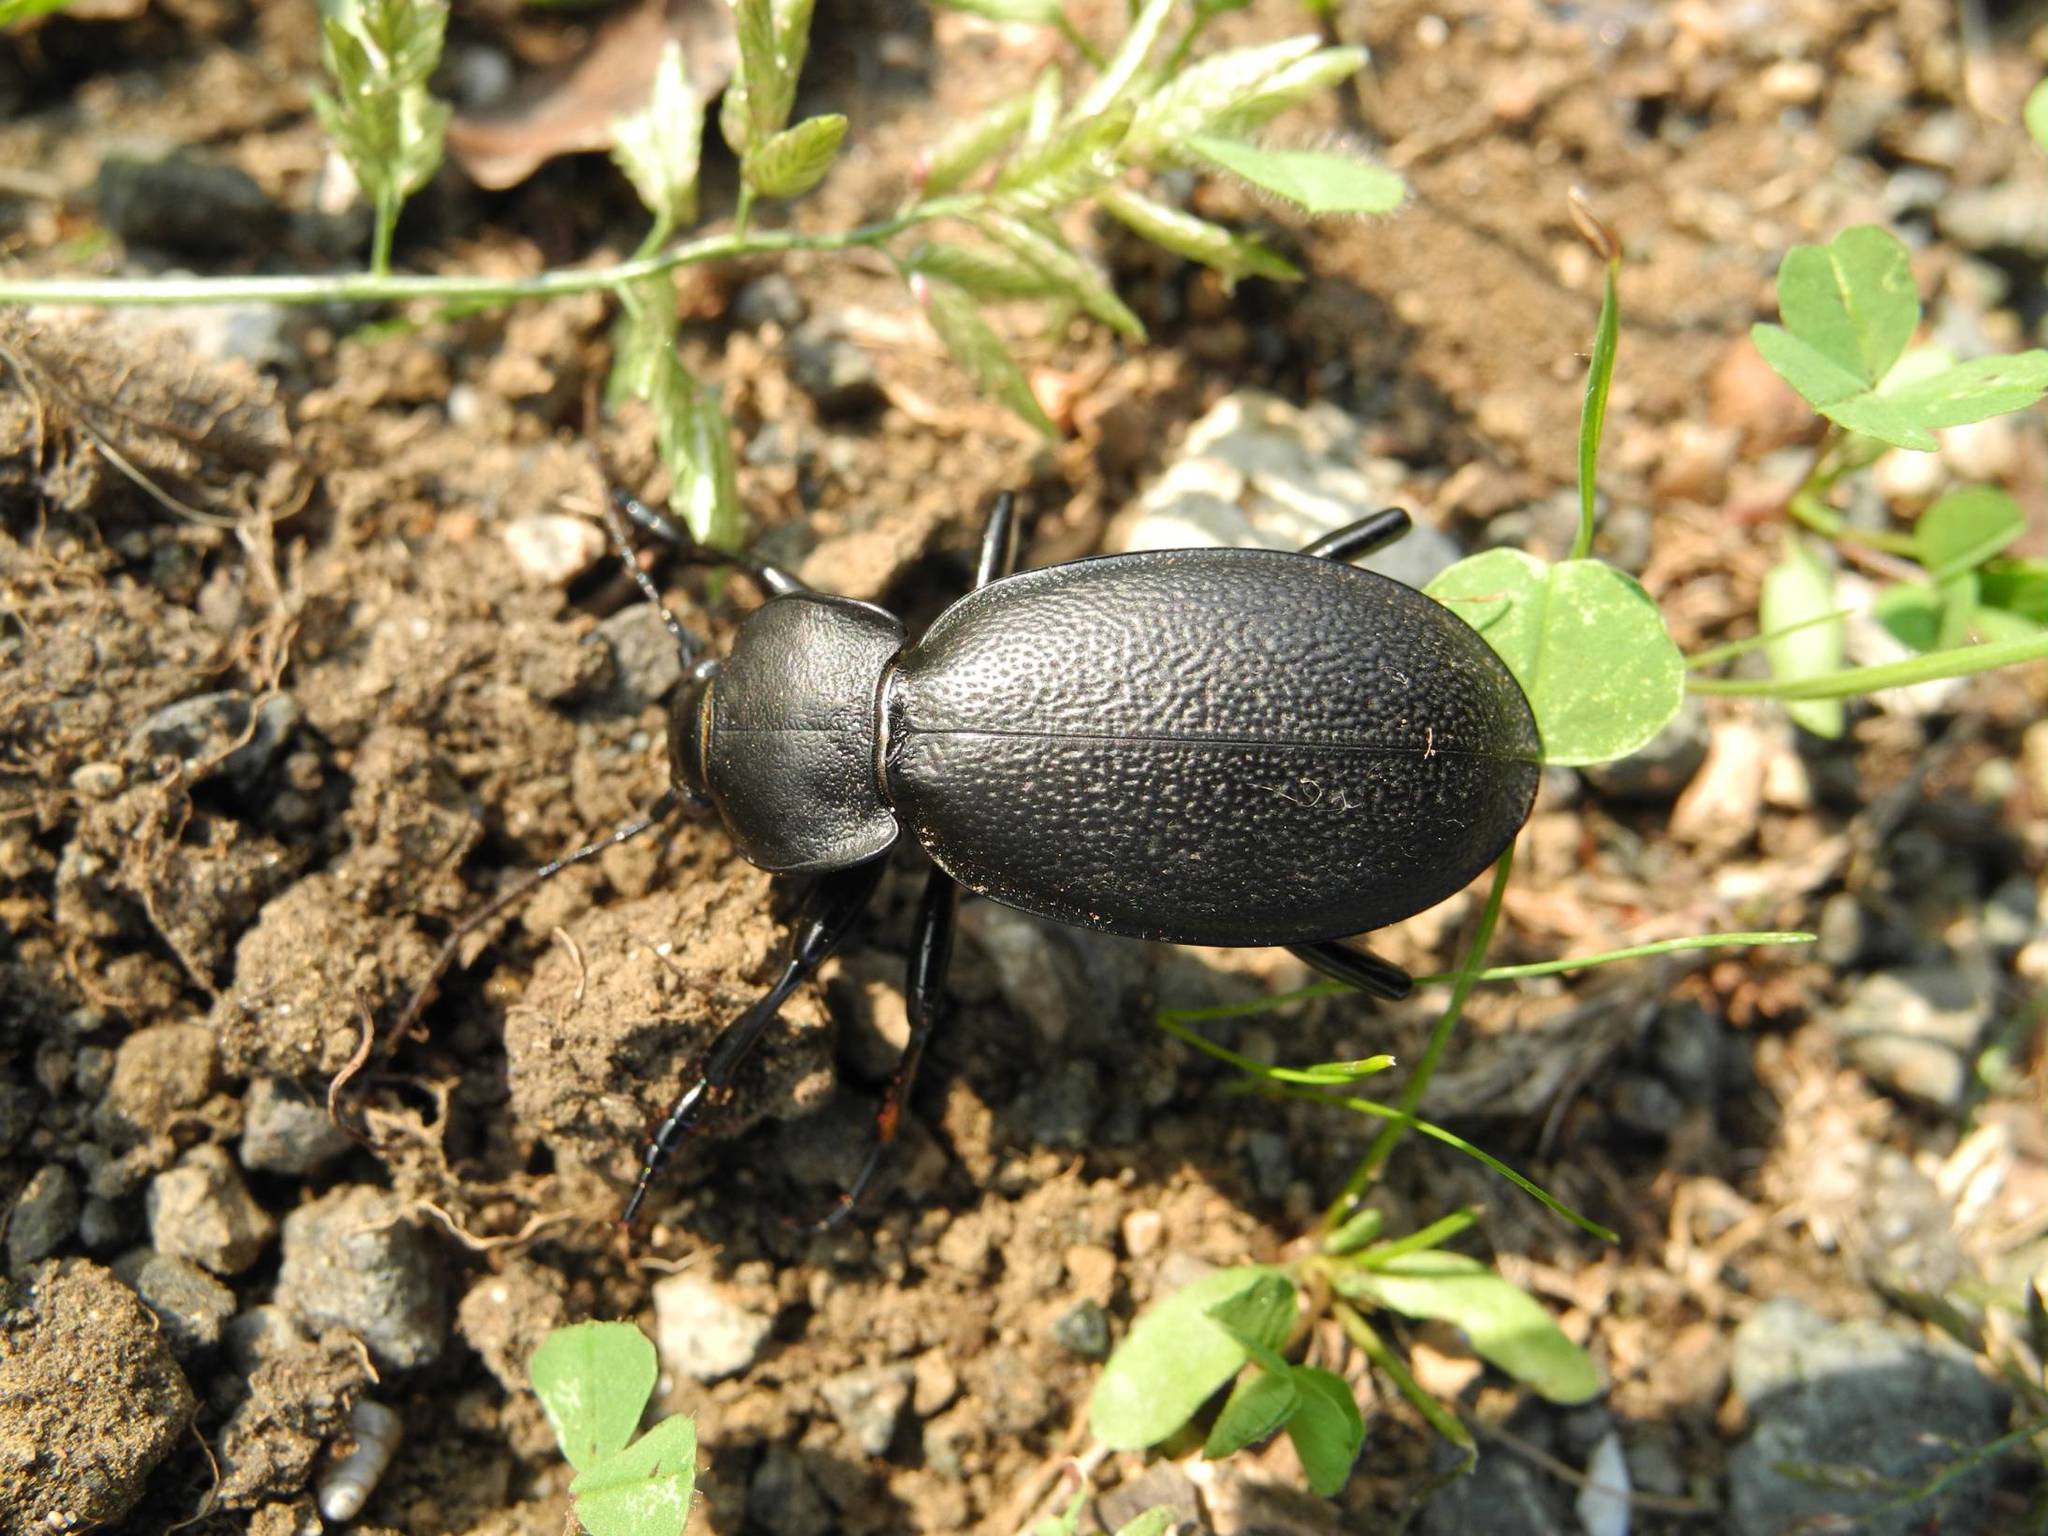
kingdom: Animalia
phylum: Arthropoda
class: Insecta
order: Coleoptera
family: Carabidae
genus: Carabus
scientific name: Carabus coriaceus
